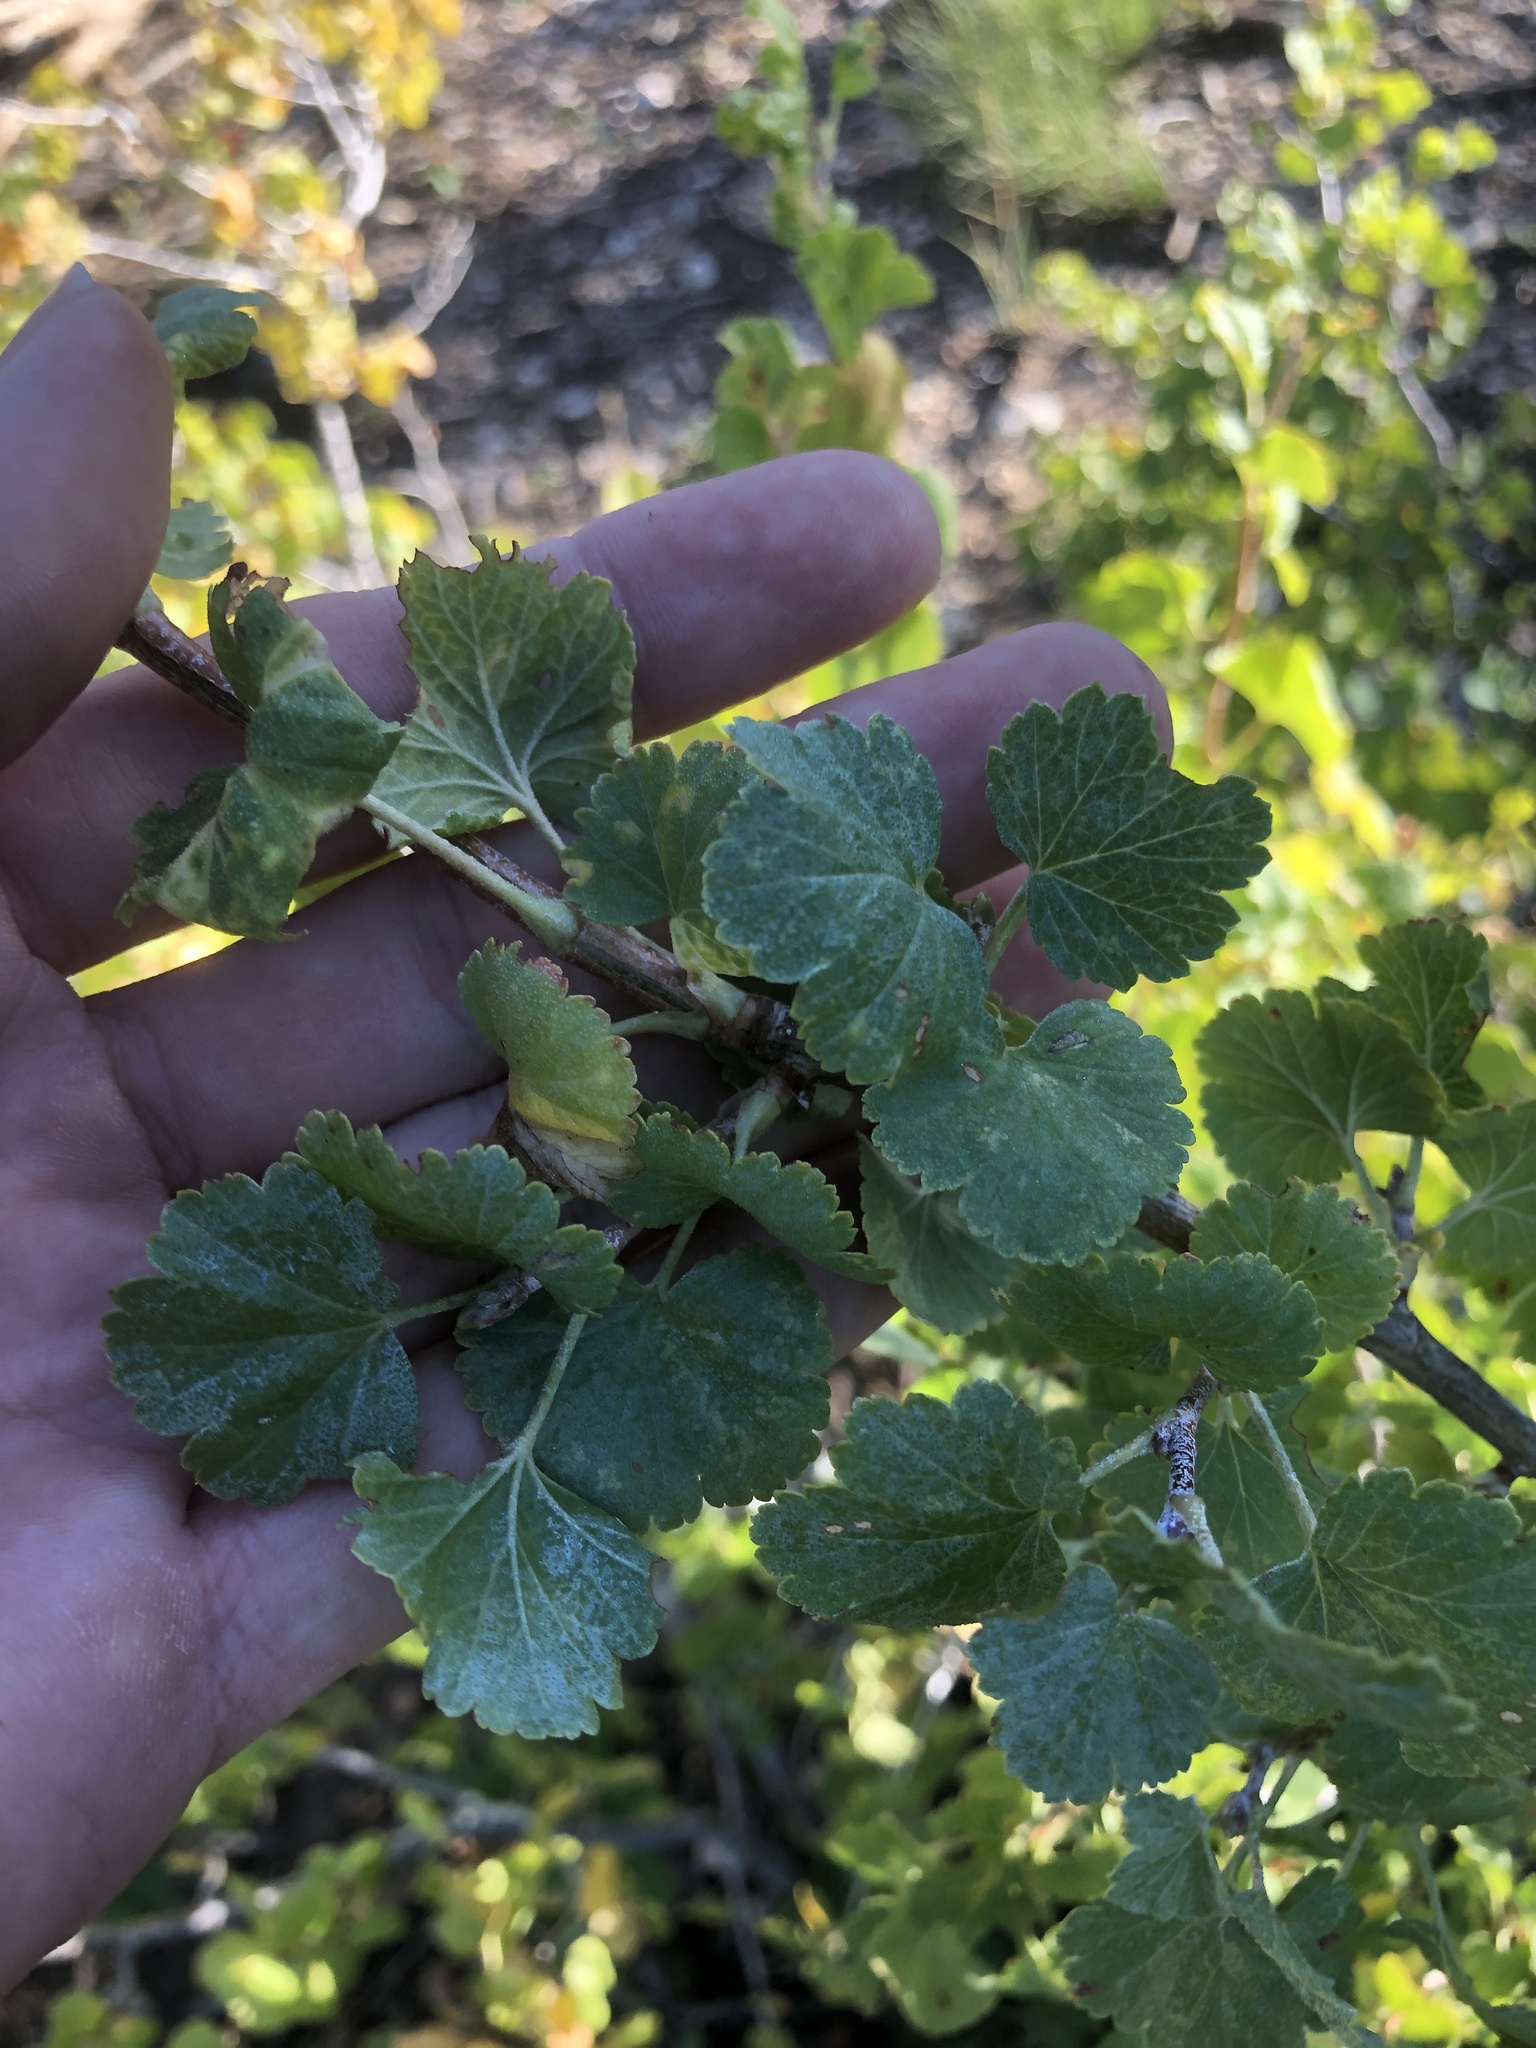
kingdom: Plantae
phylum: Tracheophyta
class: Magnoliopsida
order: Saxifragales
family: Grossulariaceae
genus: Ribes
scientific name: Ribes cereum
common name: Wax currant
